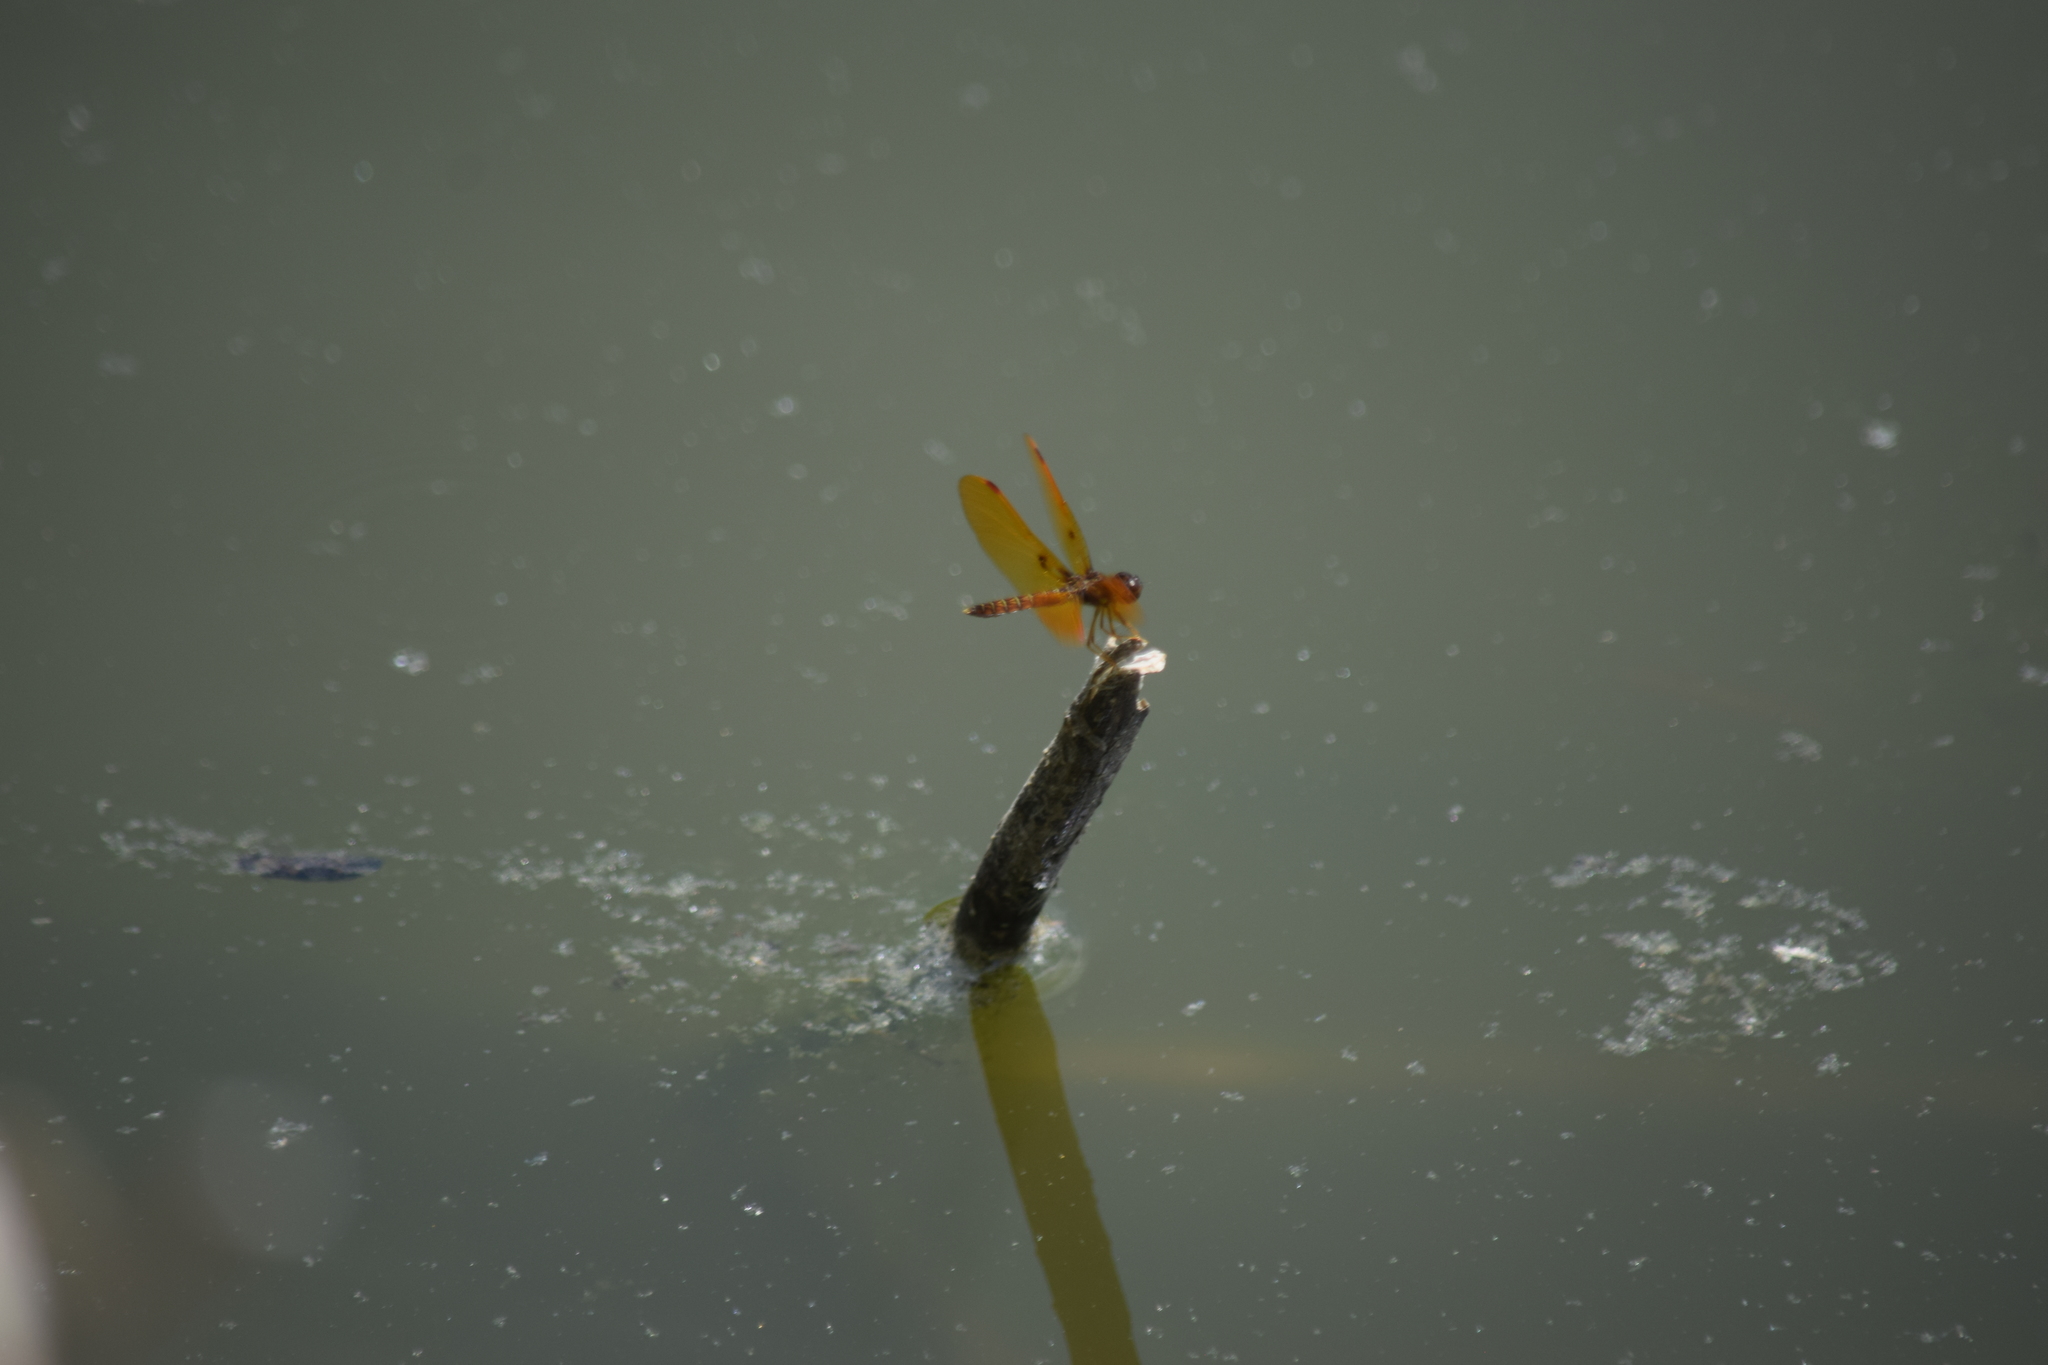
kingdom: Animalia
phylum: Arthropoda
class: Insecta
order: Odonata
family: Libellulidae
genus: Perithemis
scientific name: Perithemis tenera
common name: Eastern amberwing
